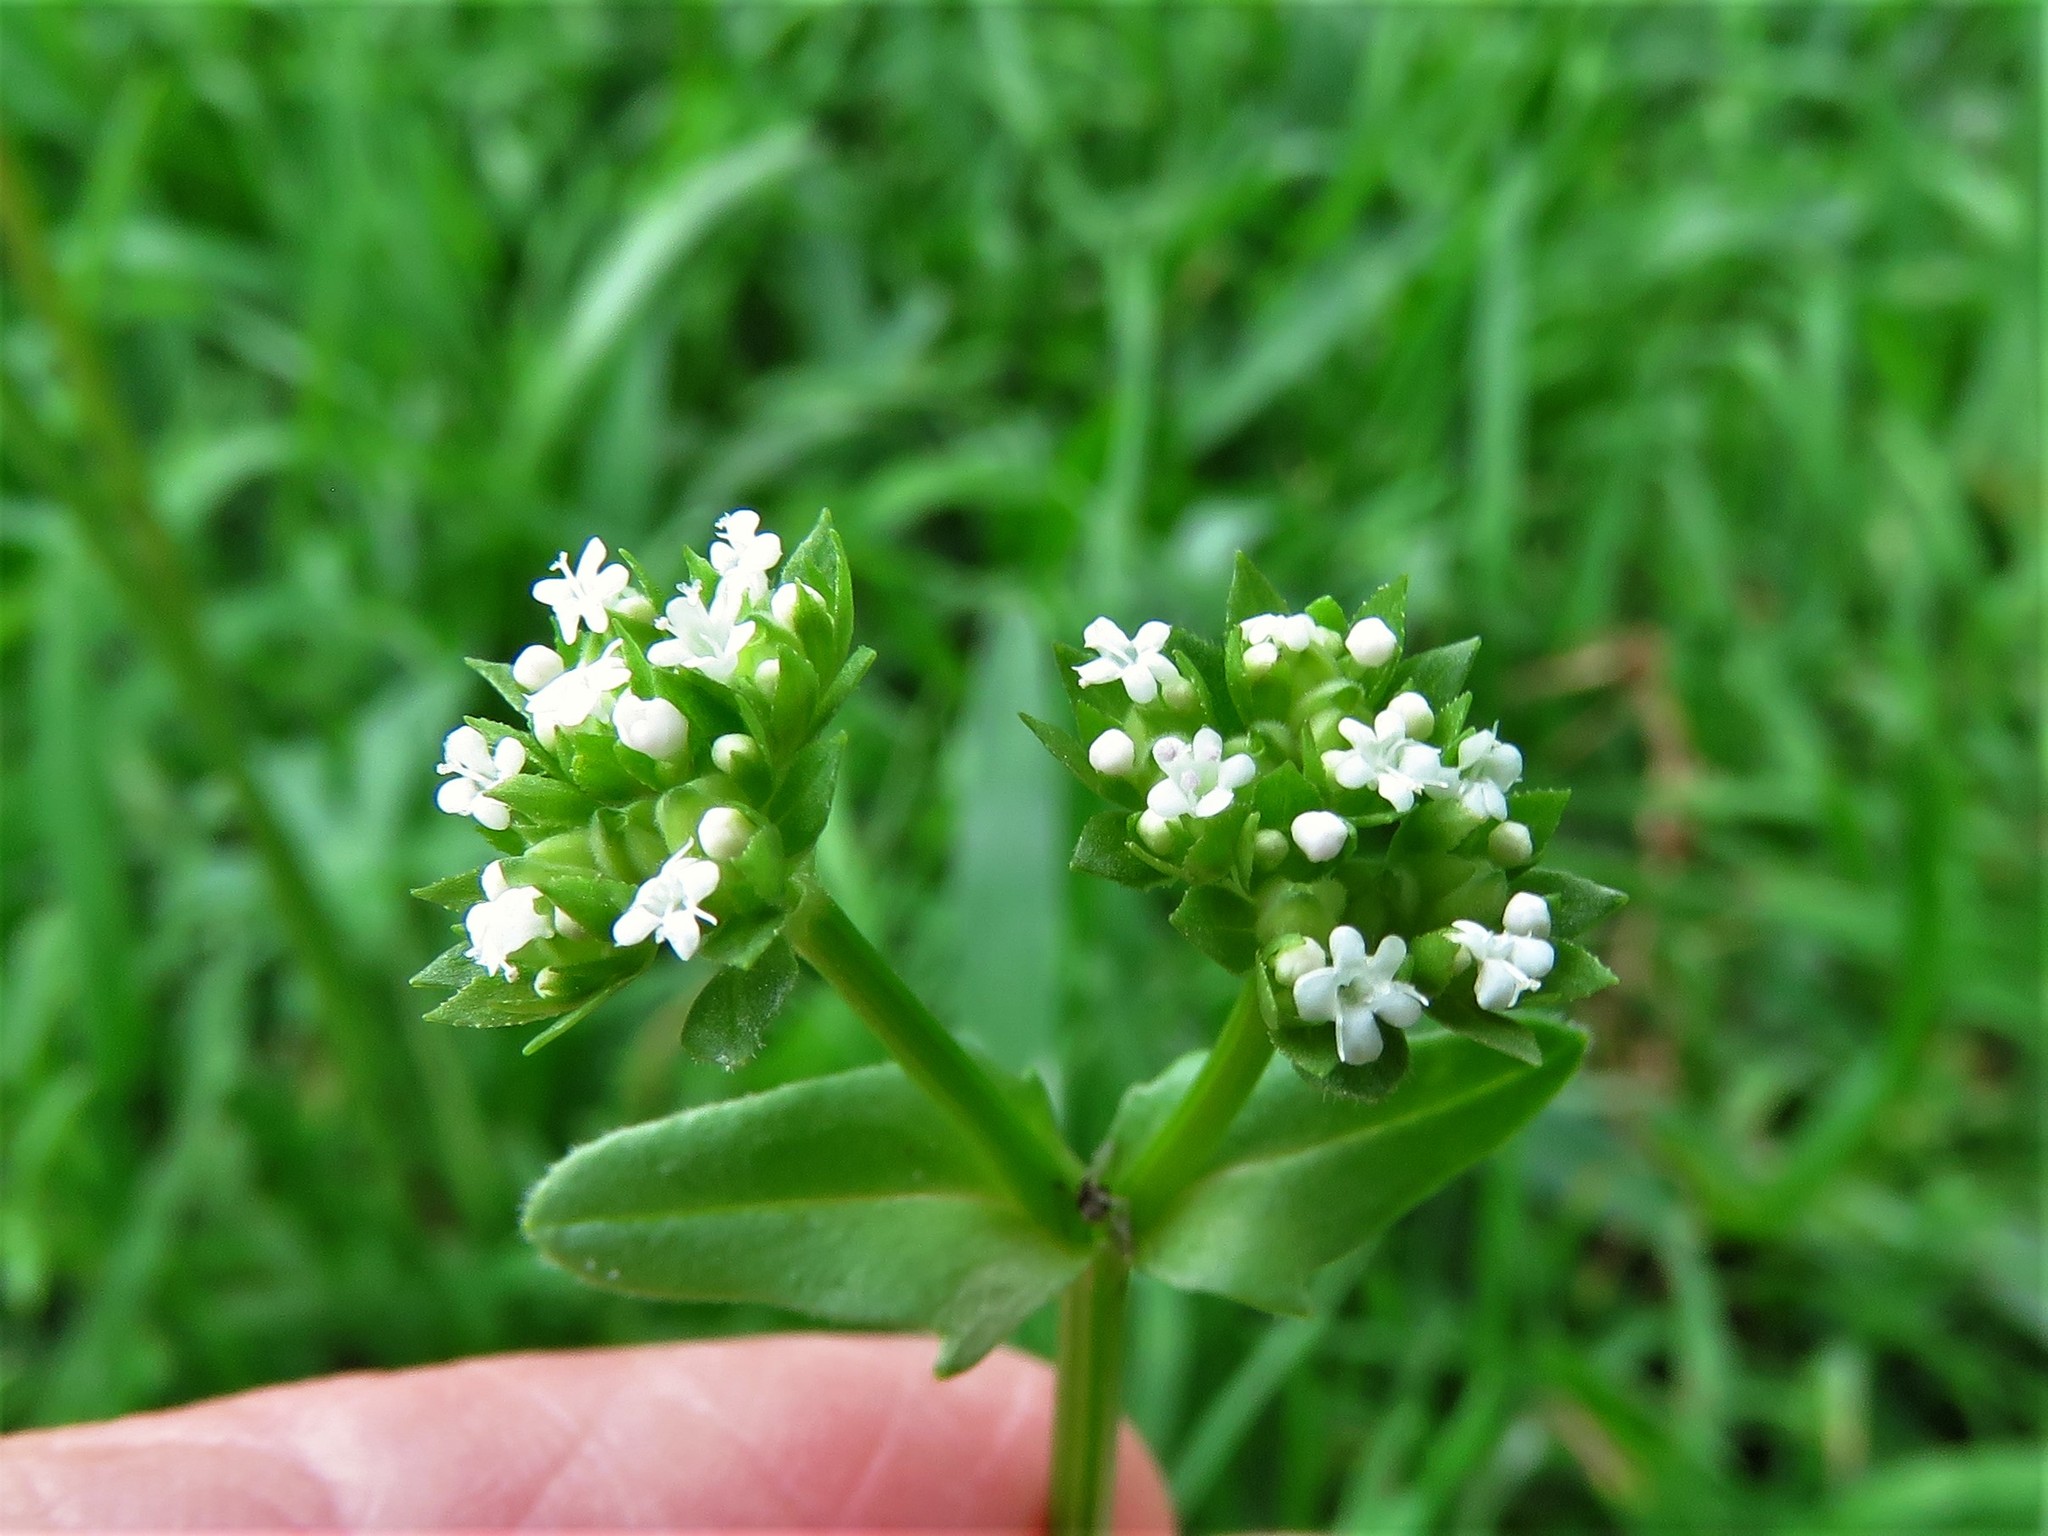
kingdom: Plantae
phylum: Tracheophyta
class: Magnoliopsida
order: Dipsacales
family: Caprifoliaceae
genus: Valerianella
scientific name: Valerianella radiata
